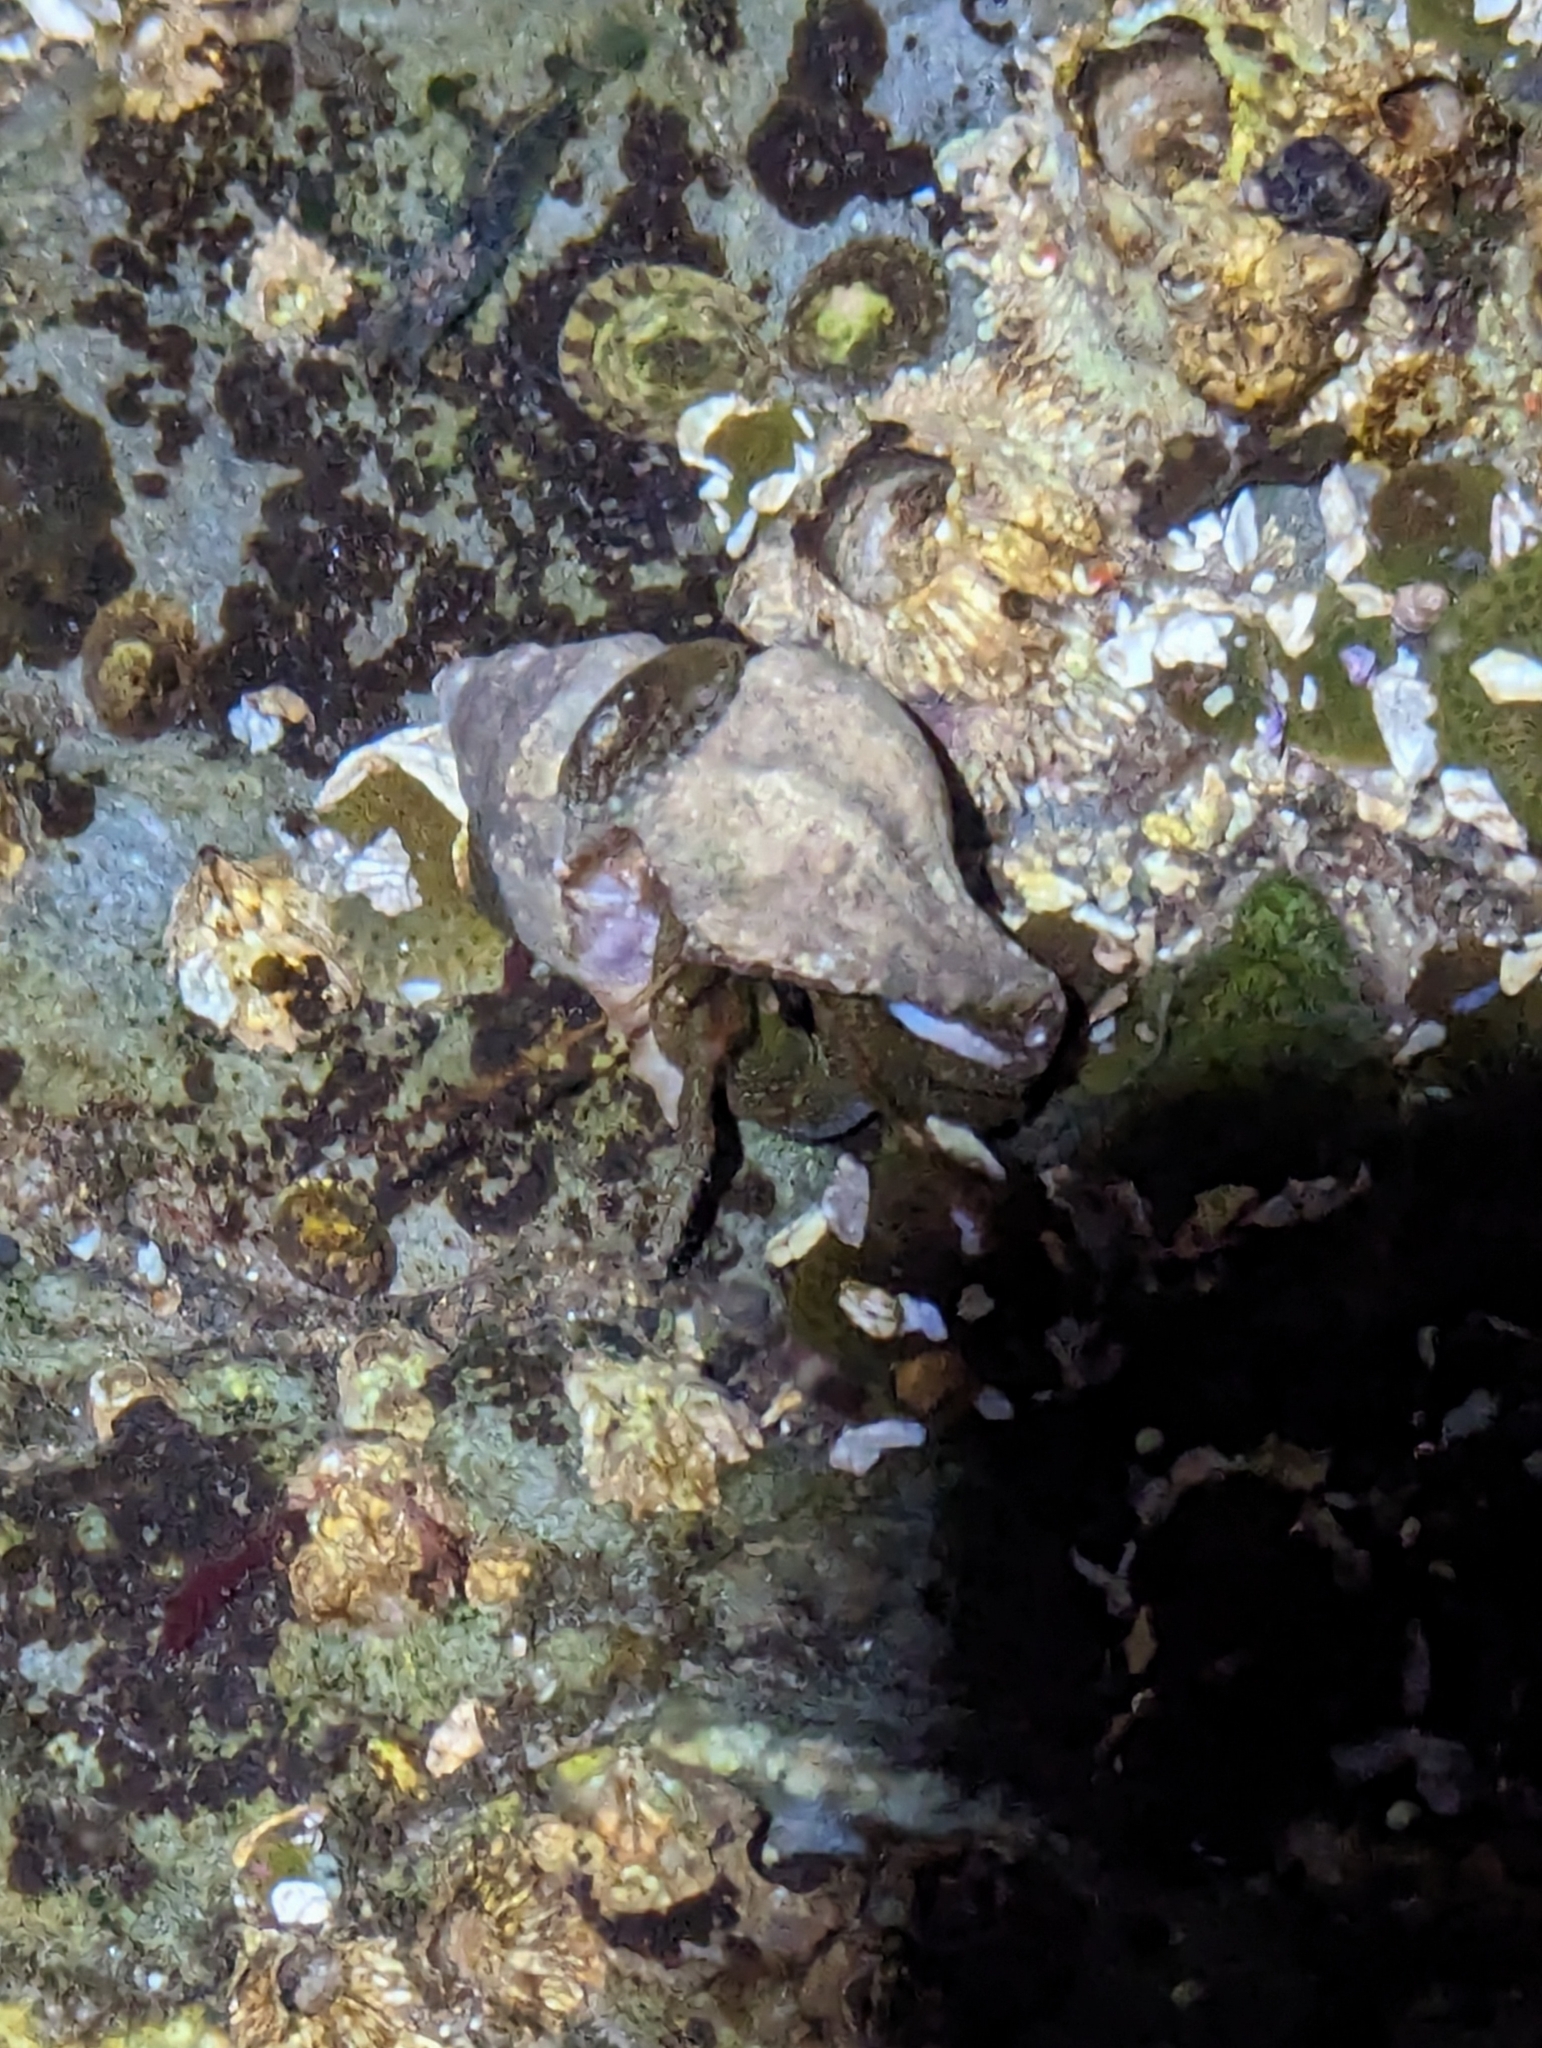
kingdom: Animalia
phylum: Arthropoda
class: Malacostraca
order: Decapoda
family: Paguridae
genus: Pagurus
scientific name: Pagurus granosimanus
